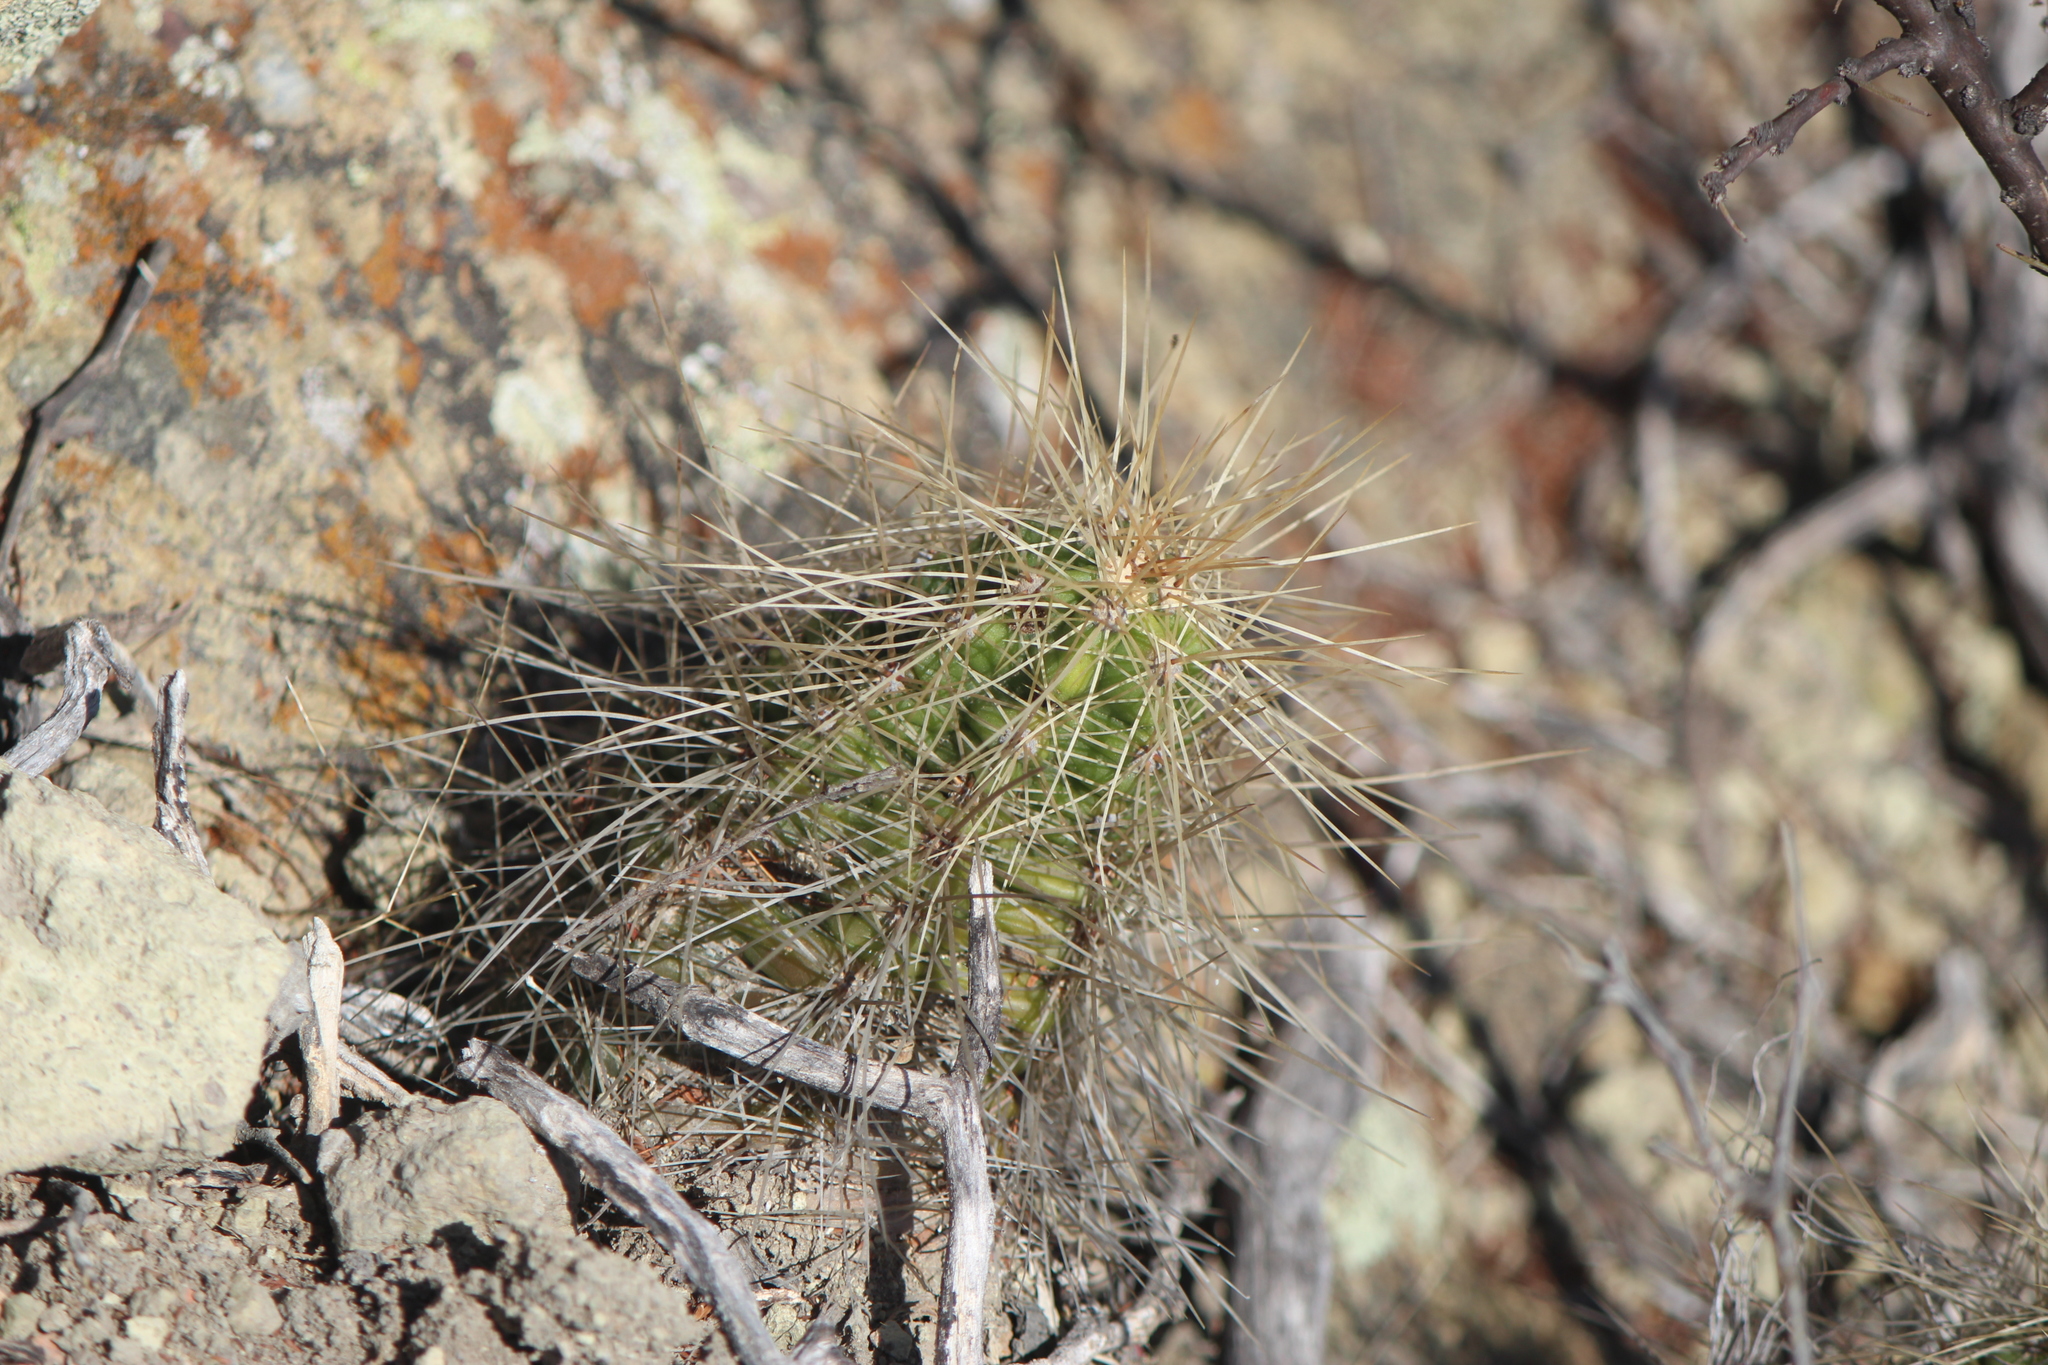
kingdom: Plantae
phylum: Tracheophyta
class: Magnoliopsida
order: Caryophyllales
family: Cactaceae
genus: Echinocereus
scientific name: Echinocereus cinerascens
